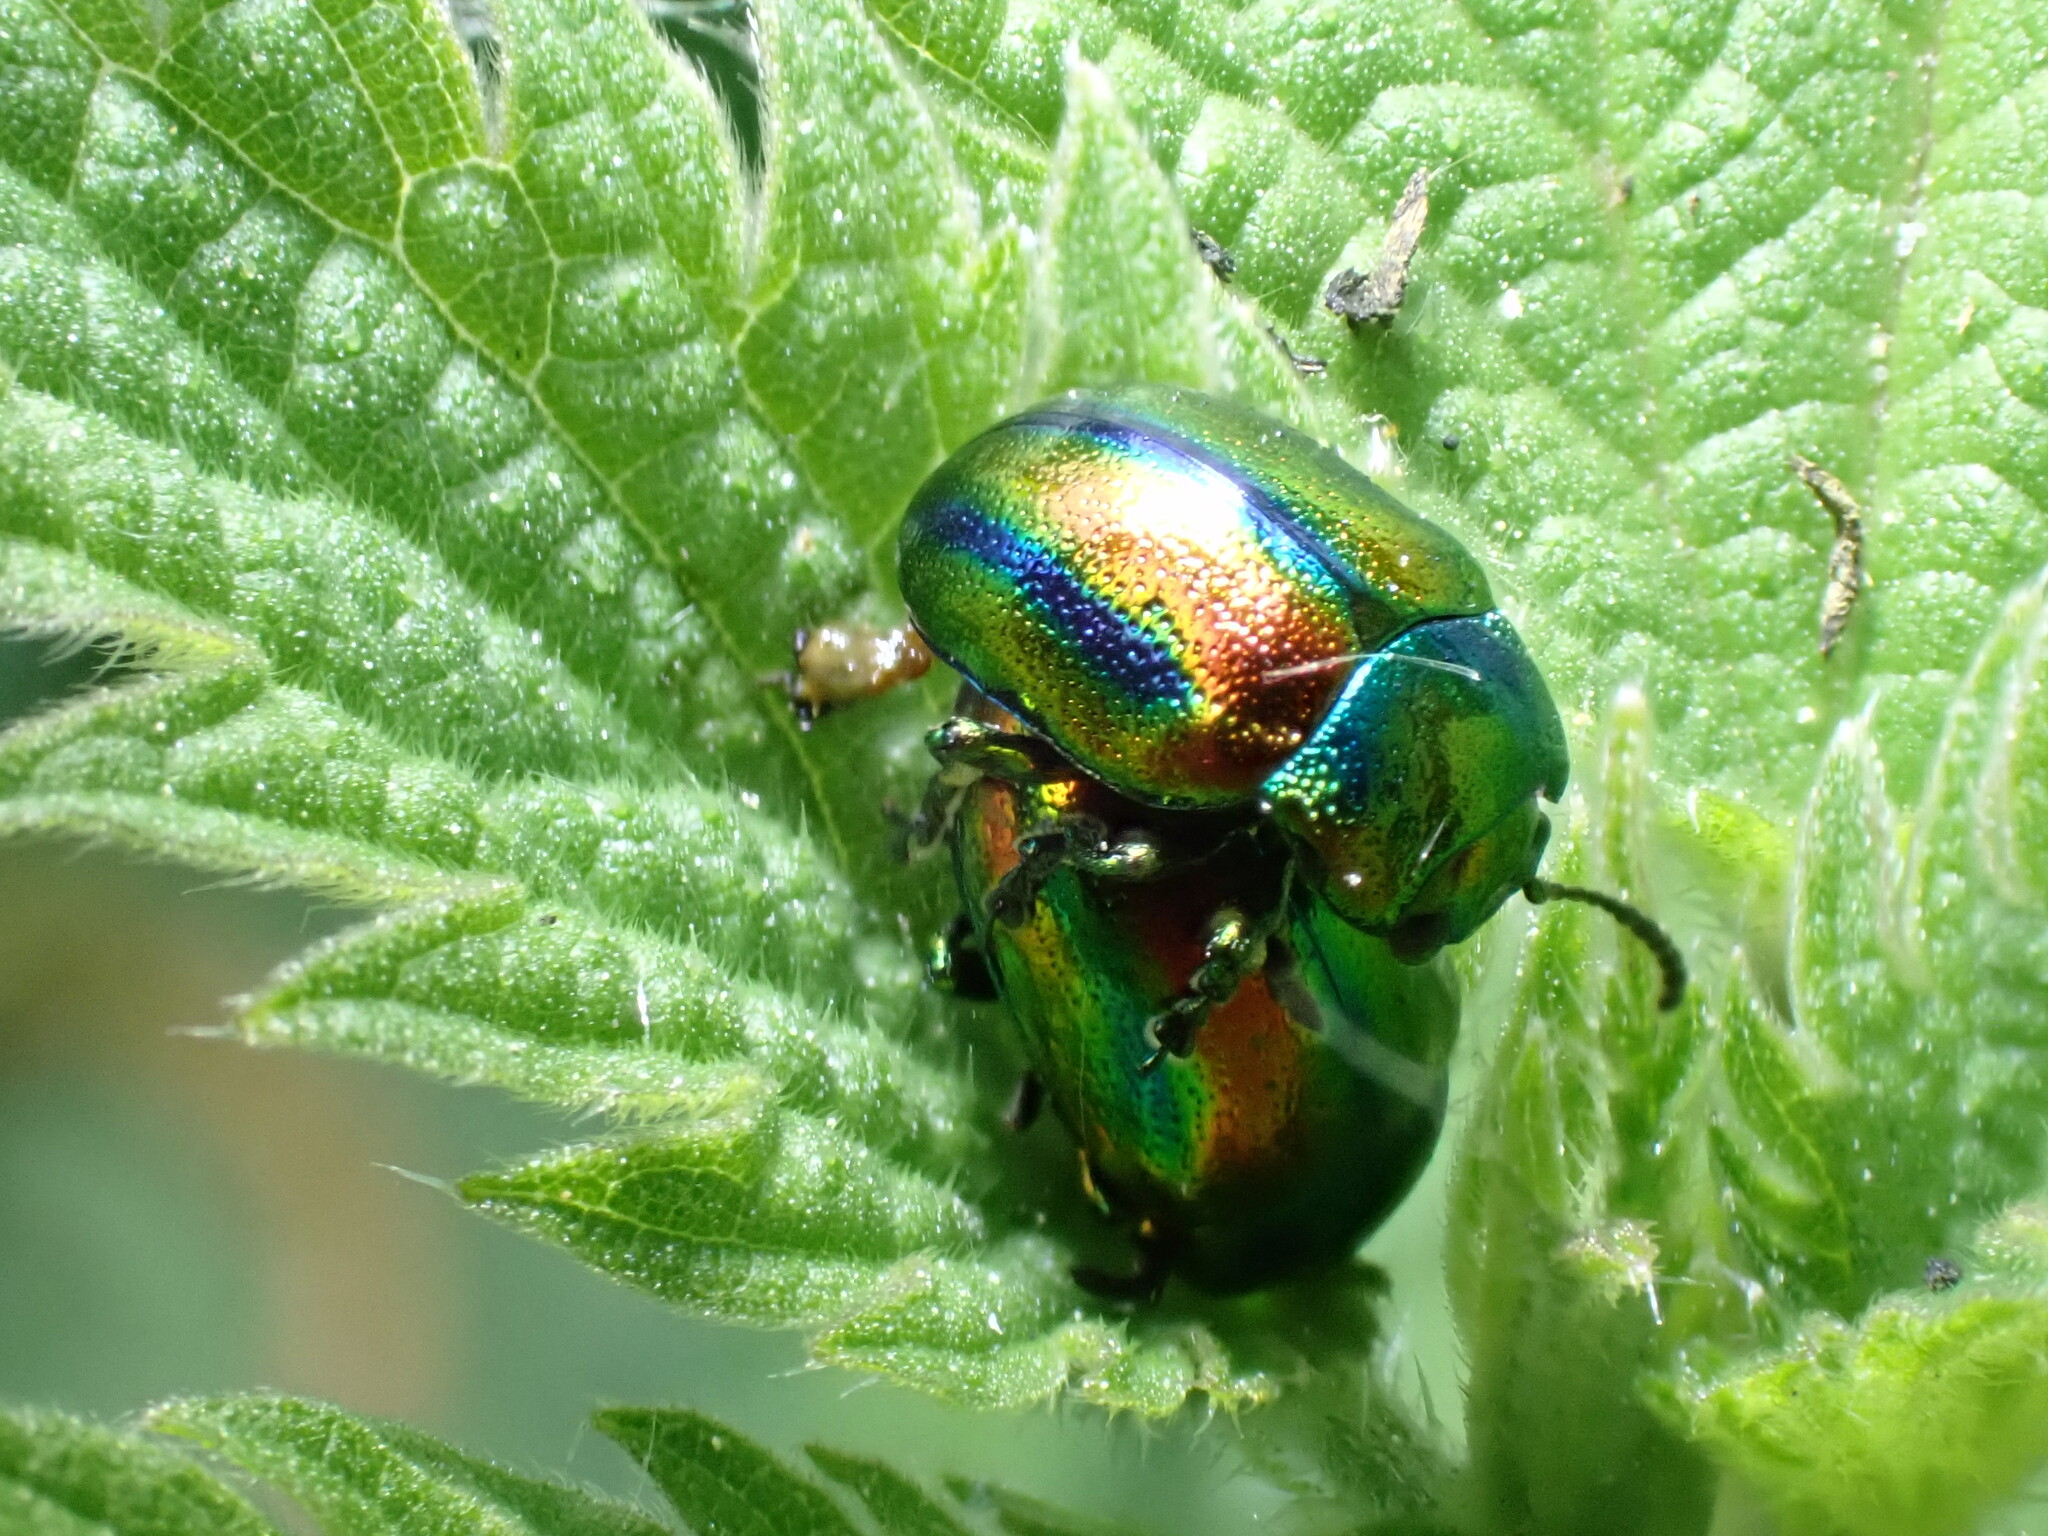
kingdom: Animalia
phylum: Arthropoda
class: Insecta
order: Coleoptera
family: Chrysomelidae
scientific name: Chrysomelidae
